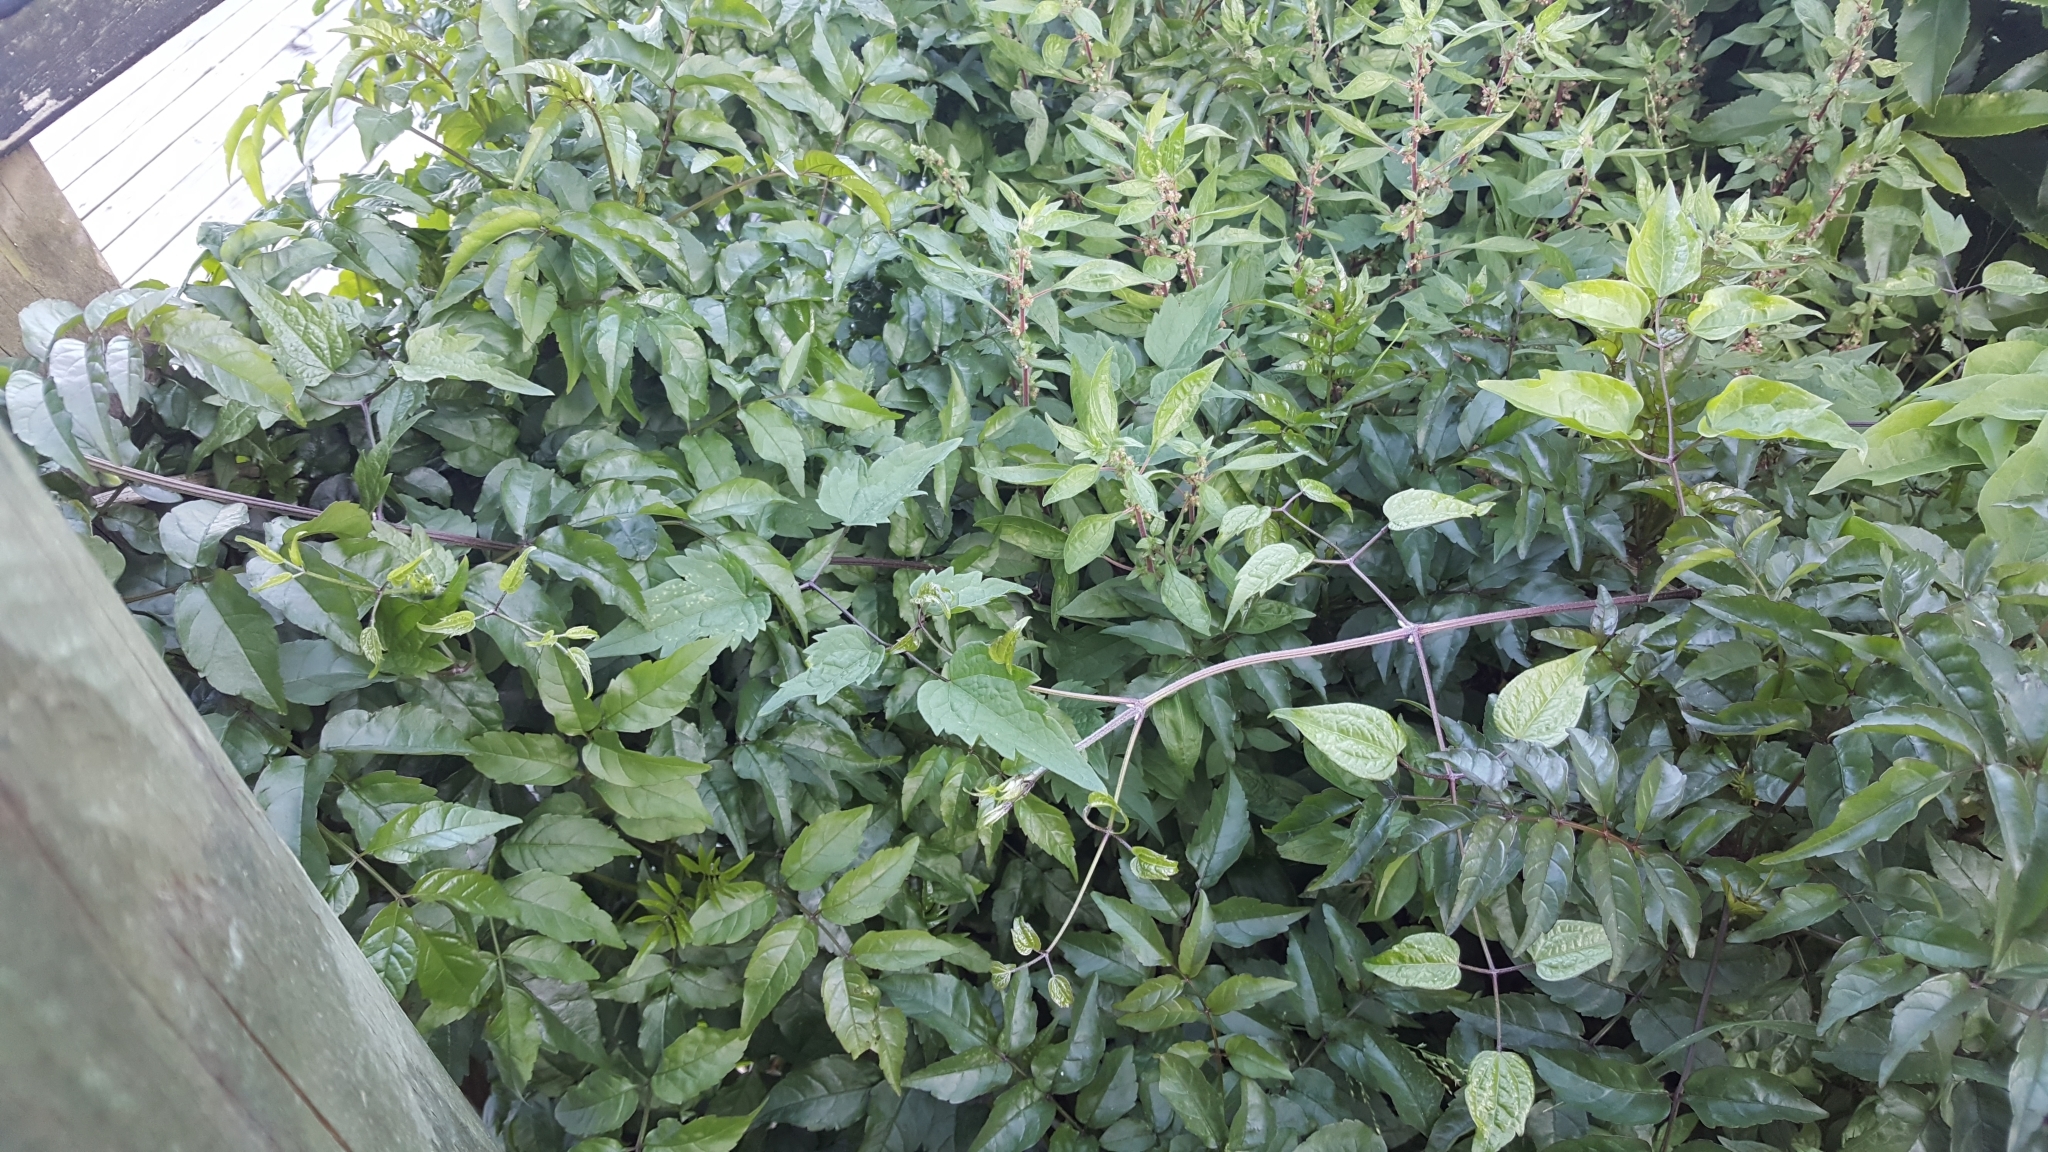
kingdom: Plantae
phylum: Tracheophyta
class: Magnoliopsida
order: Ranunculales
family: Ranunculaceae
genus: Clematis
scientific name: Clematis vitalba
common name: Evergreen clematis
